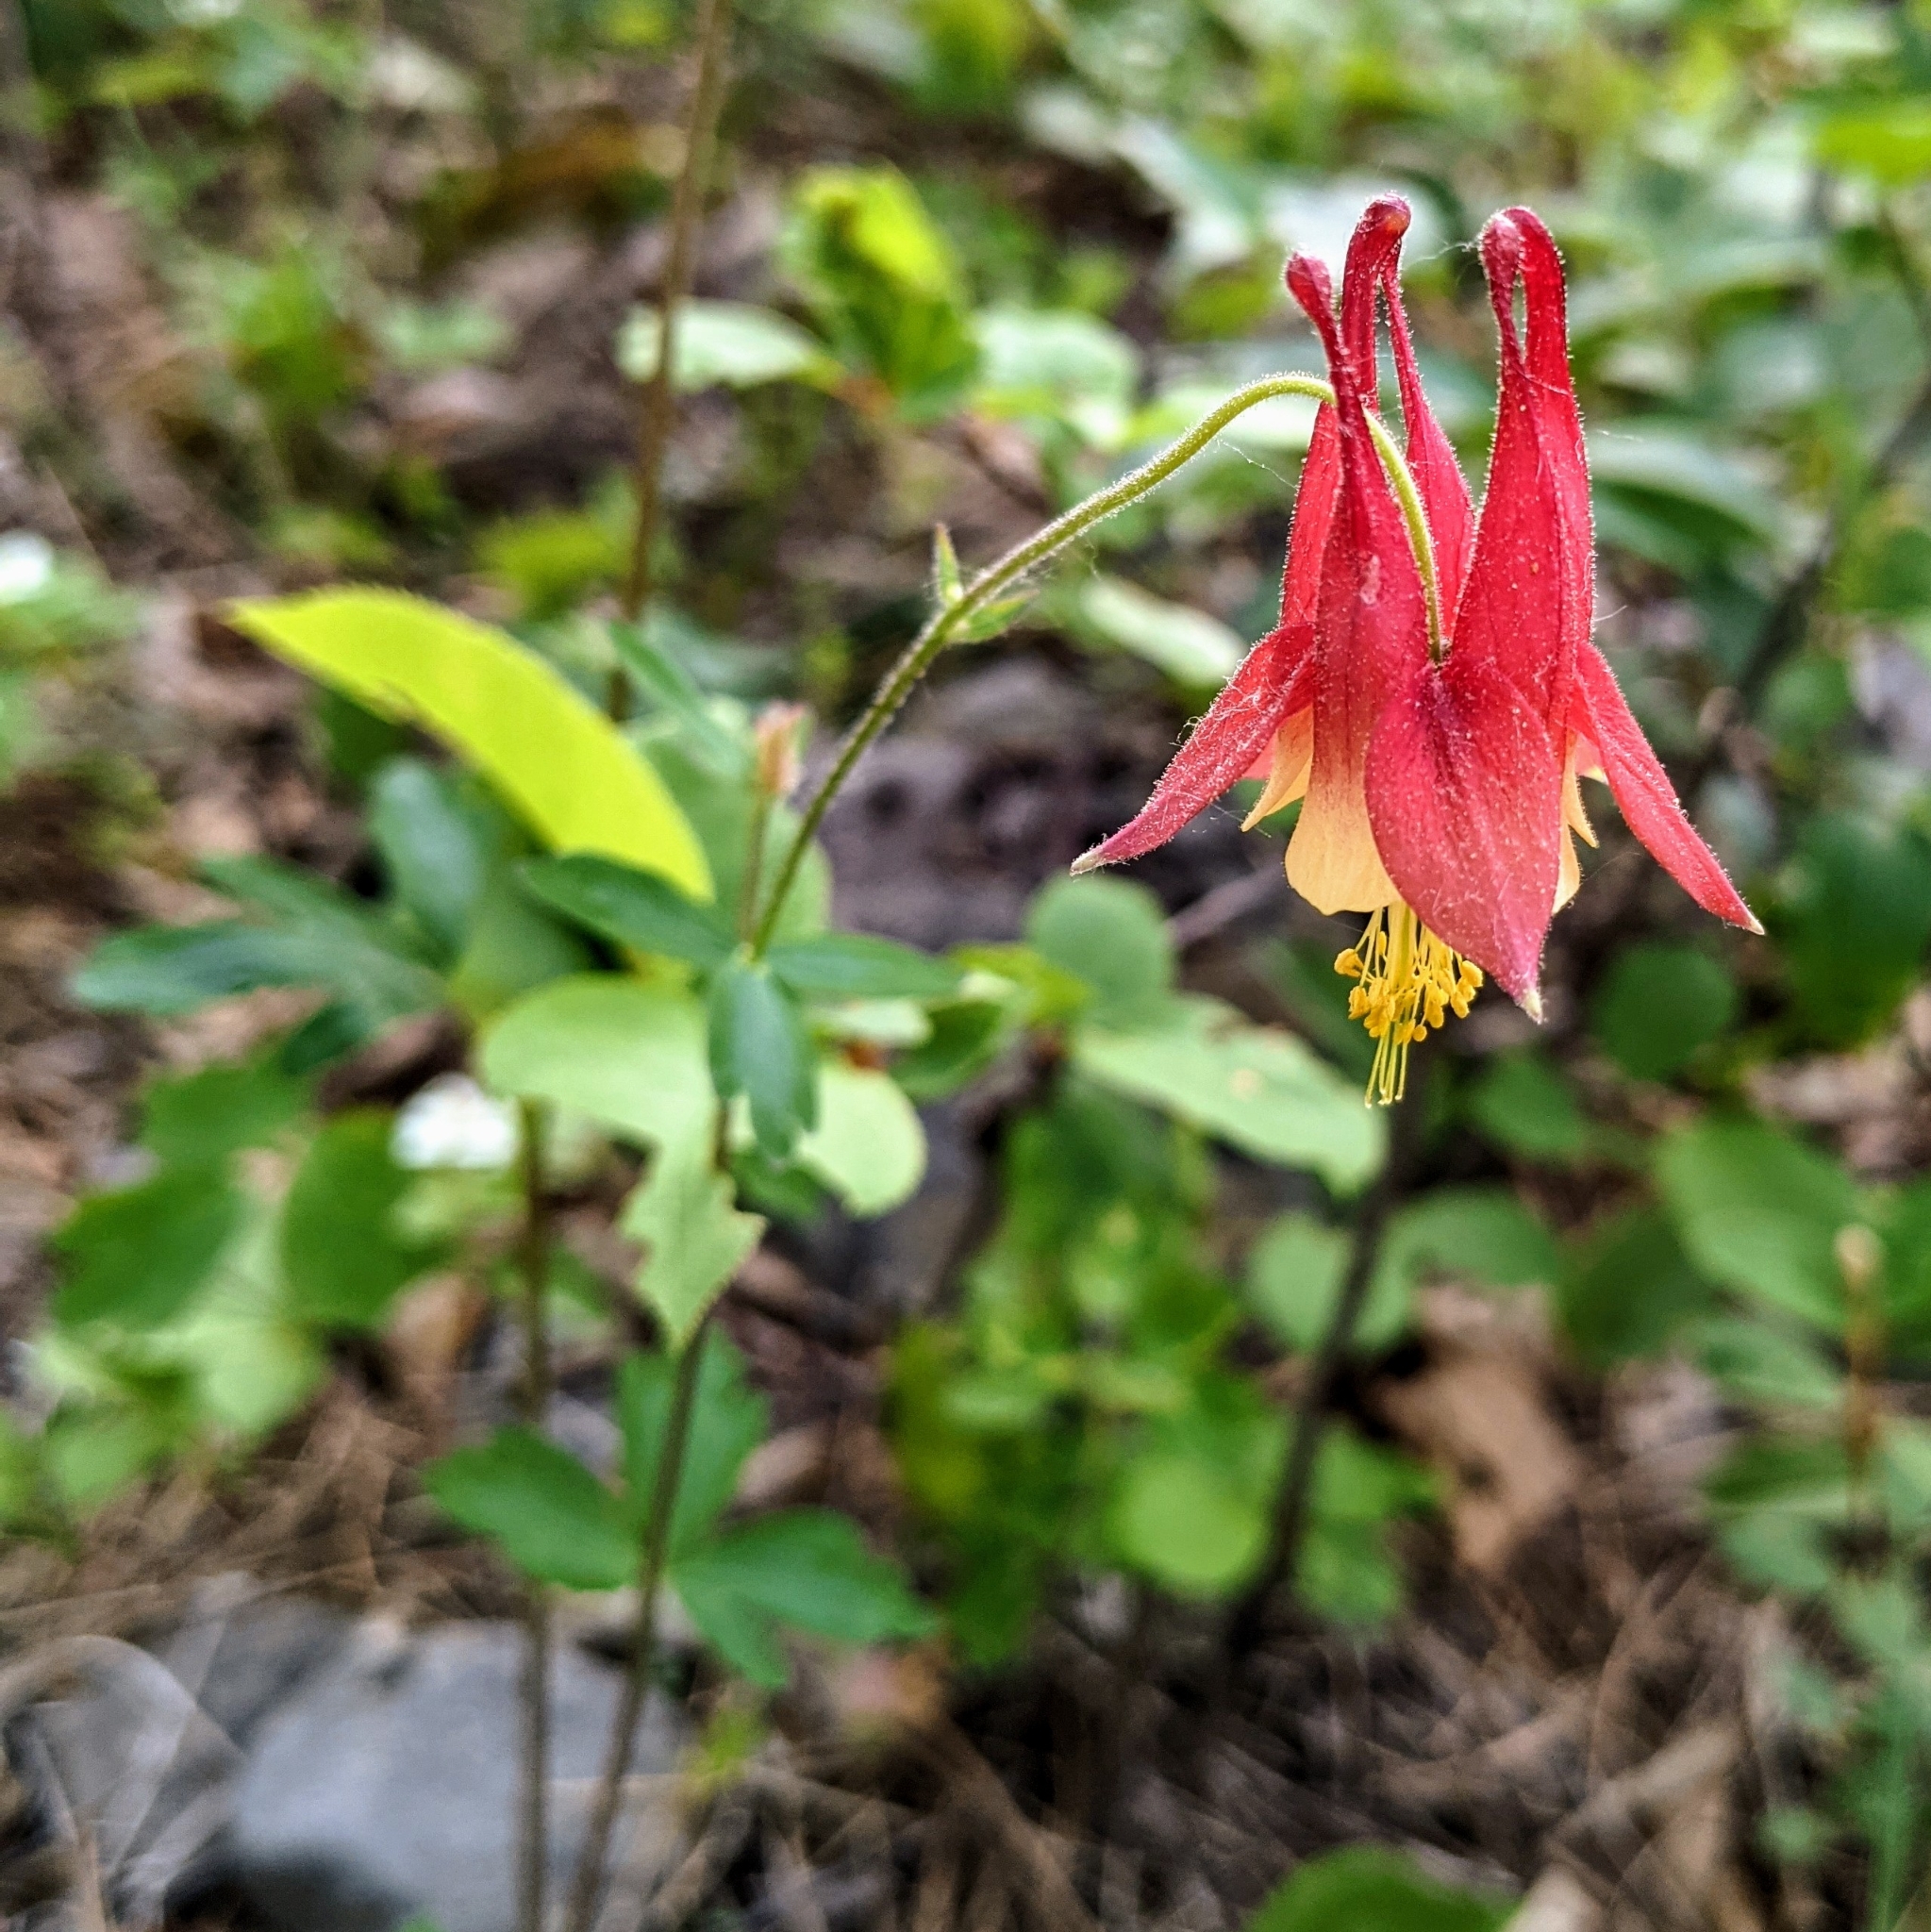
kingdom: Plantae
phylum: Tracheophyta
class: Magnoliopsida
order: Ranunculales
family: Ranunculaceae
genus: Aquilegia
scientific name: Aquilegia canadensis
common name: American columbine
